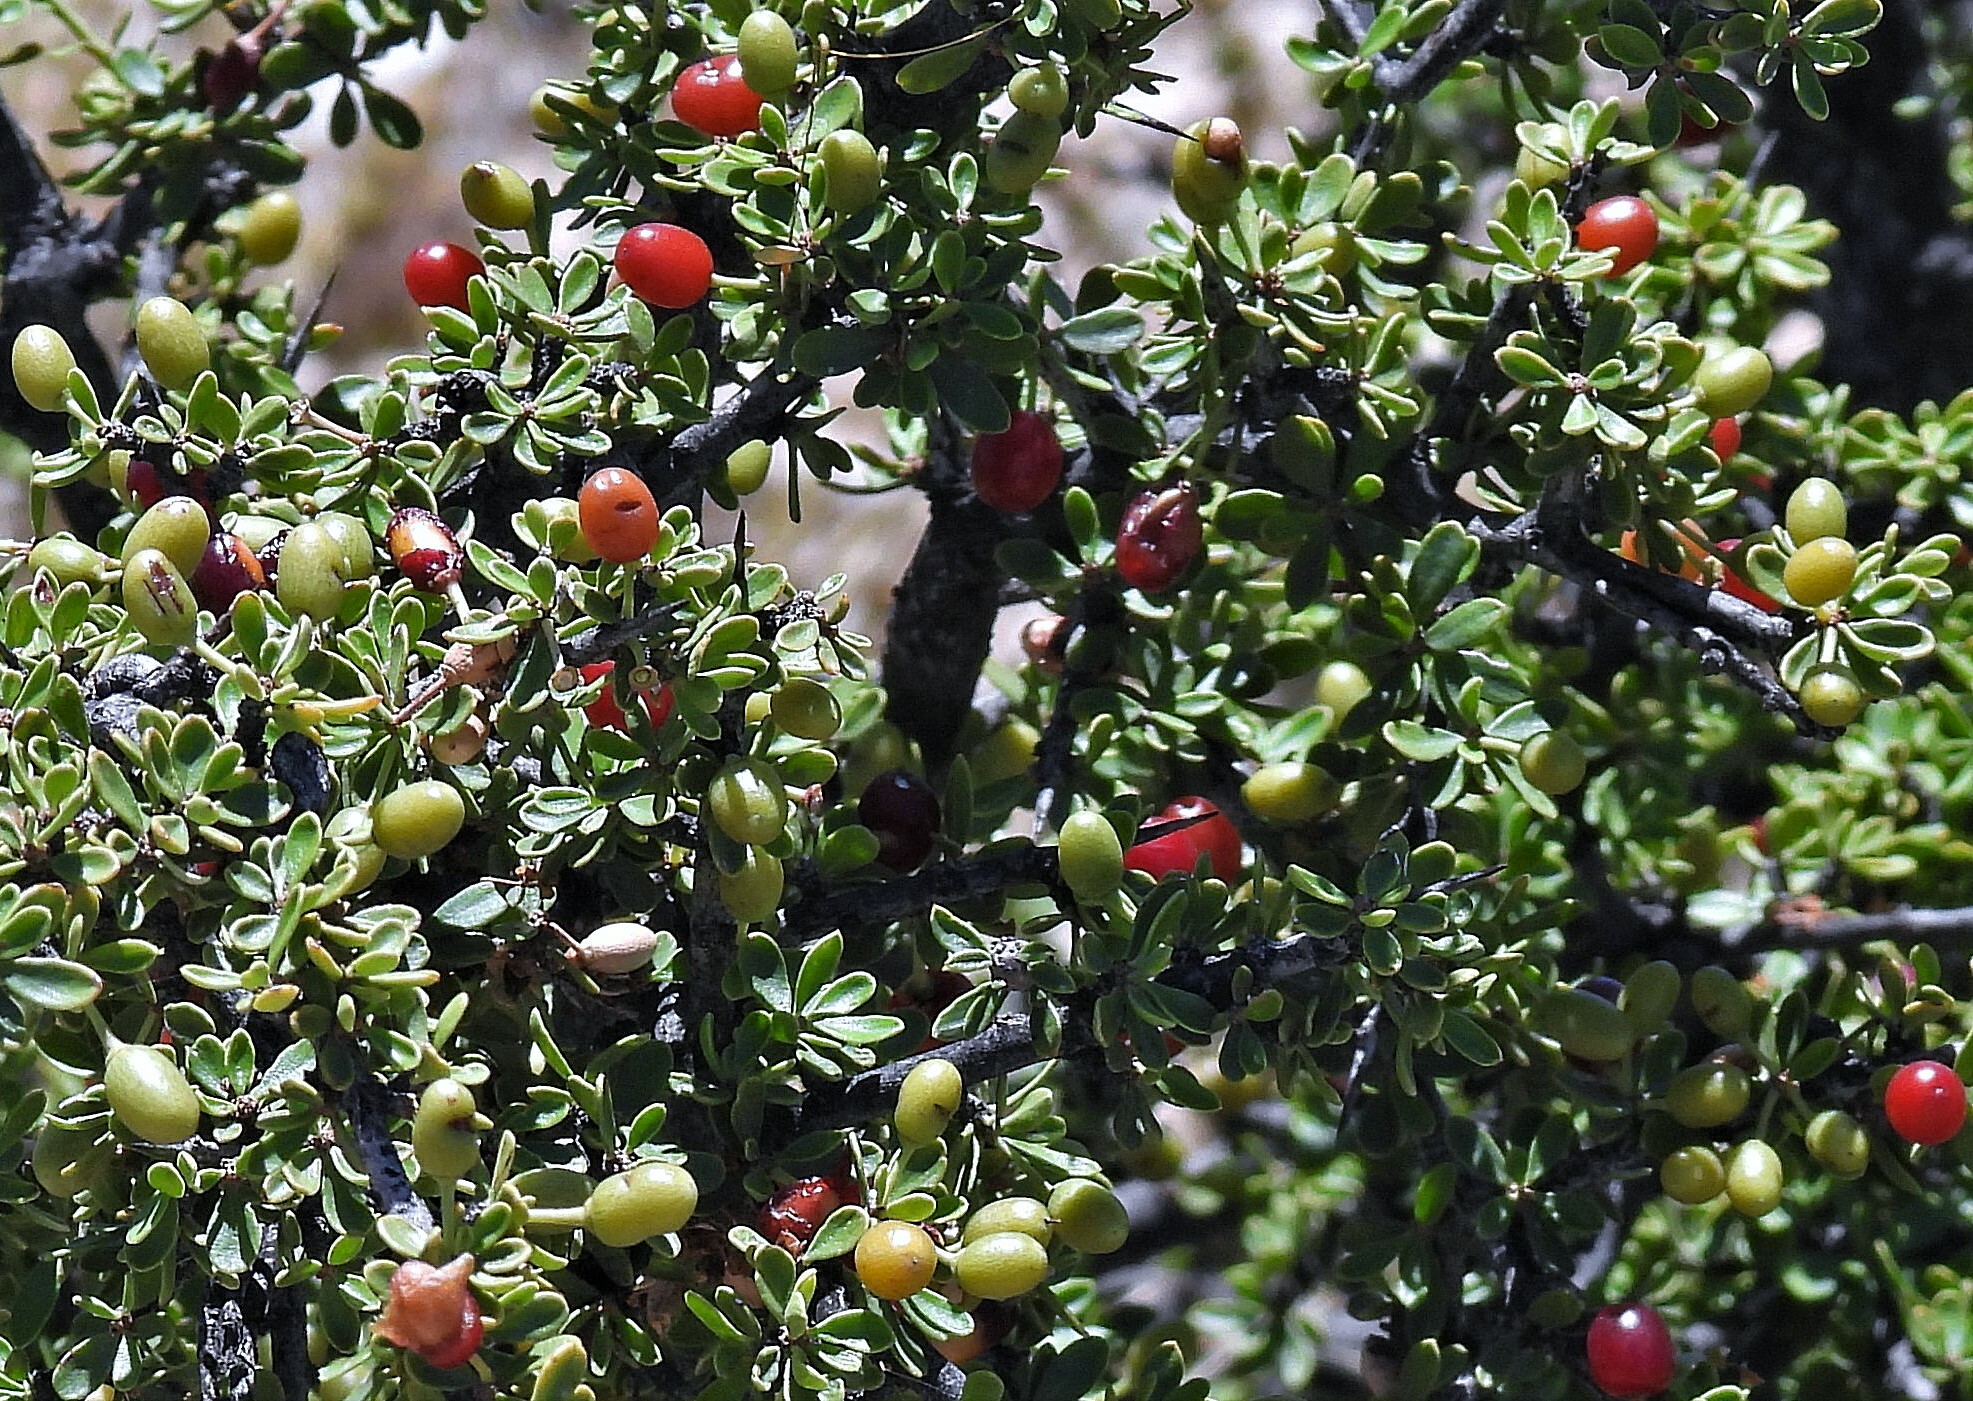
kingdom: Plantae
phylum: Tracheophyta
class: Magnoliopsida
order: Rosales
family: Rhamnaceae
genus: Condalia
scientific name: Condalia microphylla
